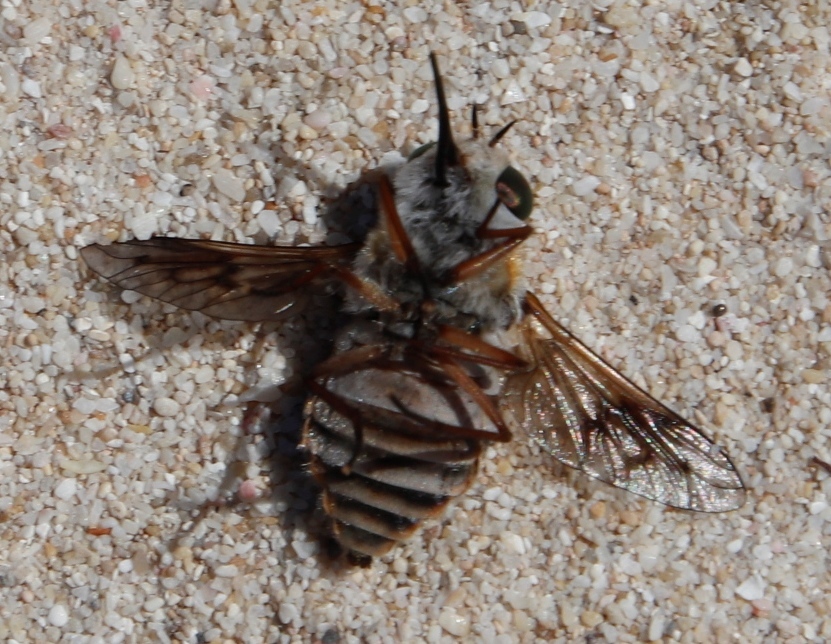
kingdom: Animalia
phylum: Arthropoda
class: Insecta
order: Diptera
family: Tabanidae
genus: Philoliche
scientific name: Philoliche alternans
